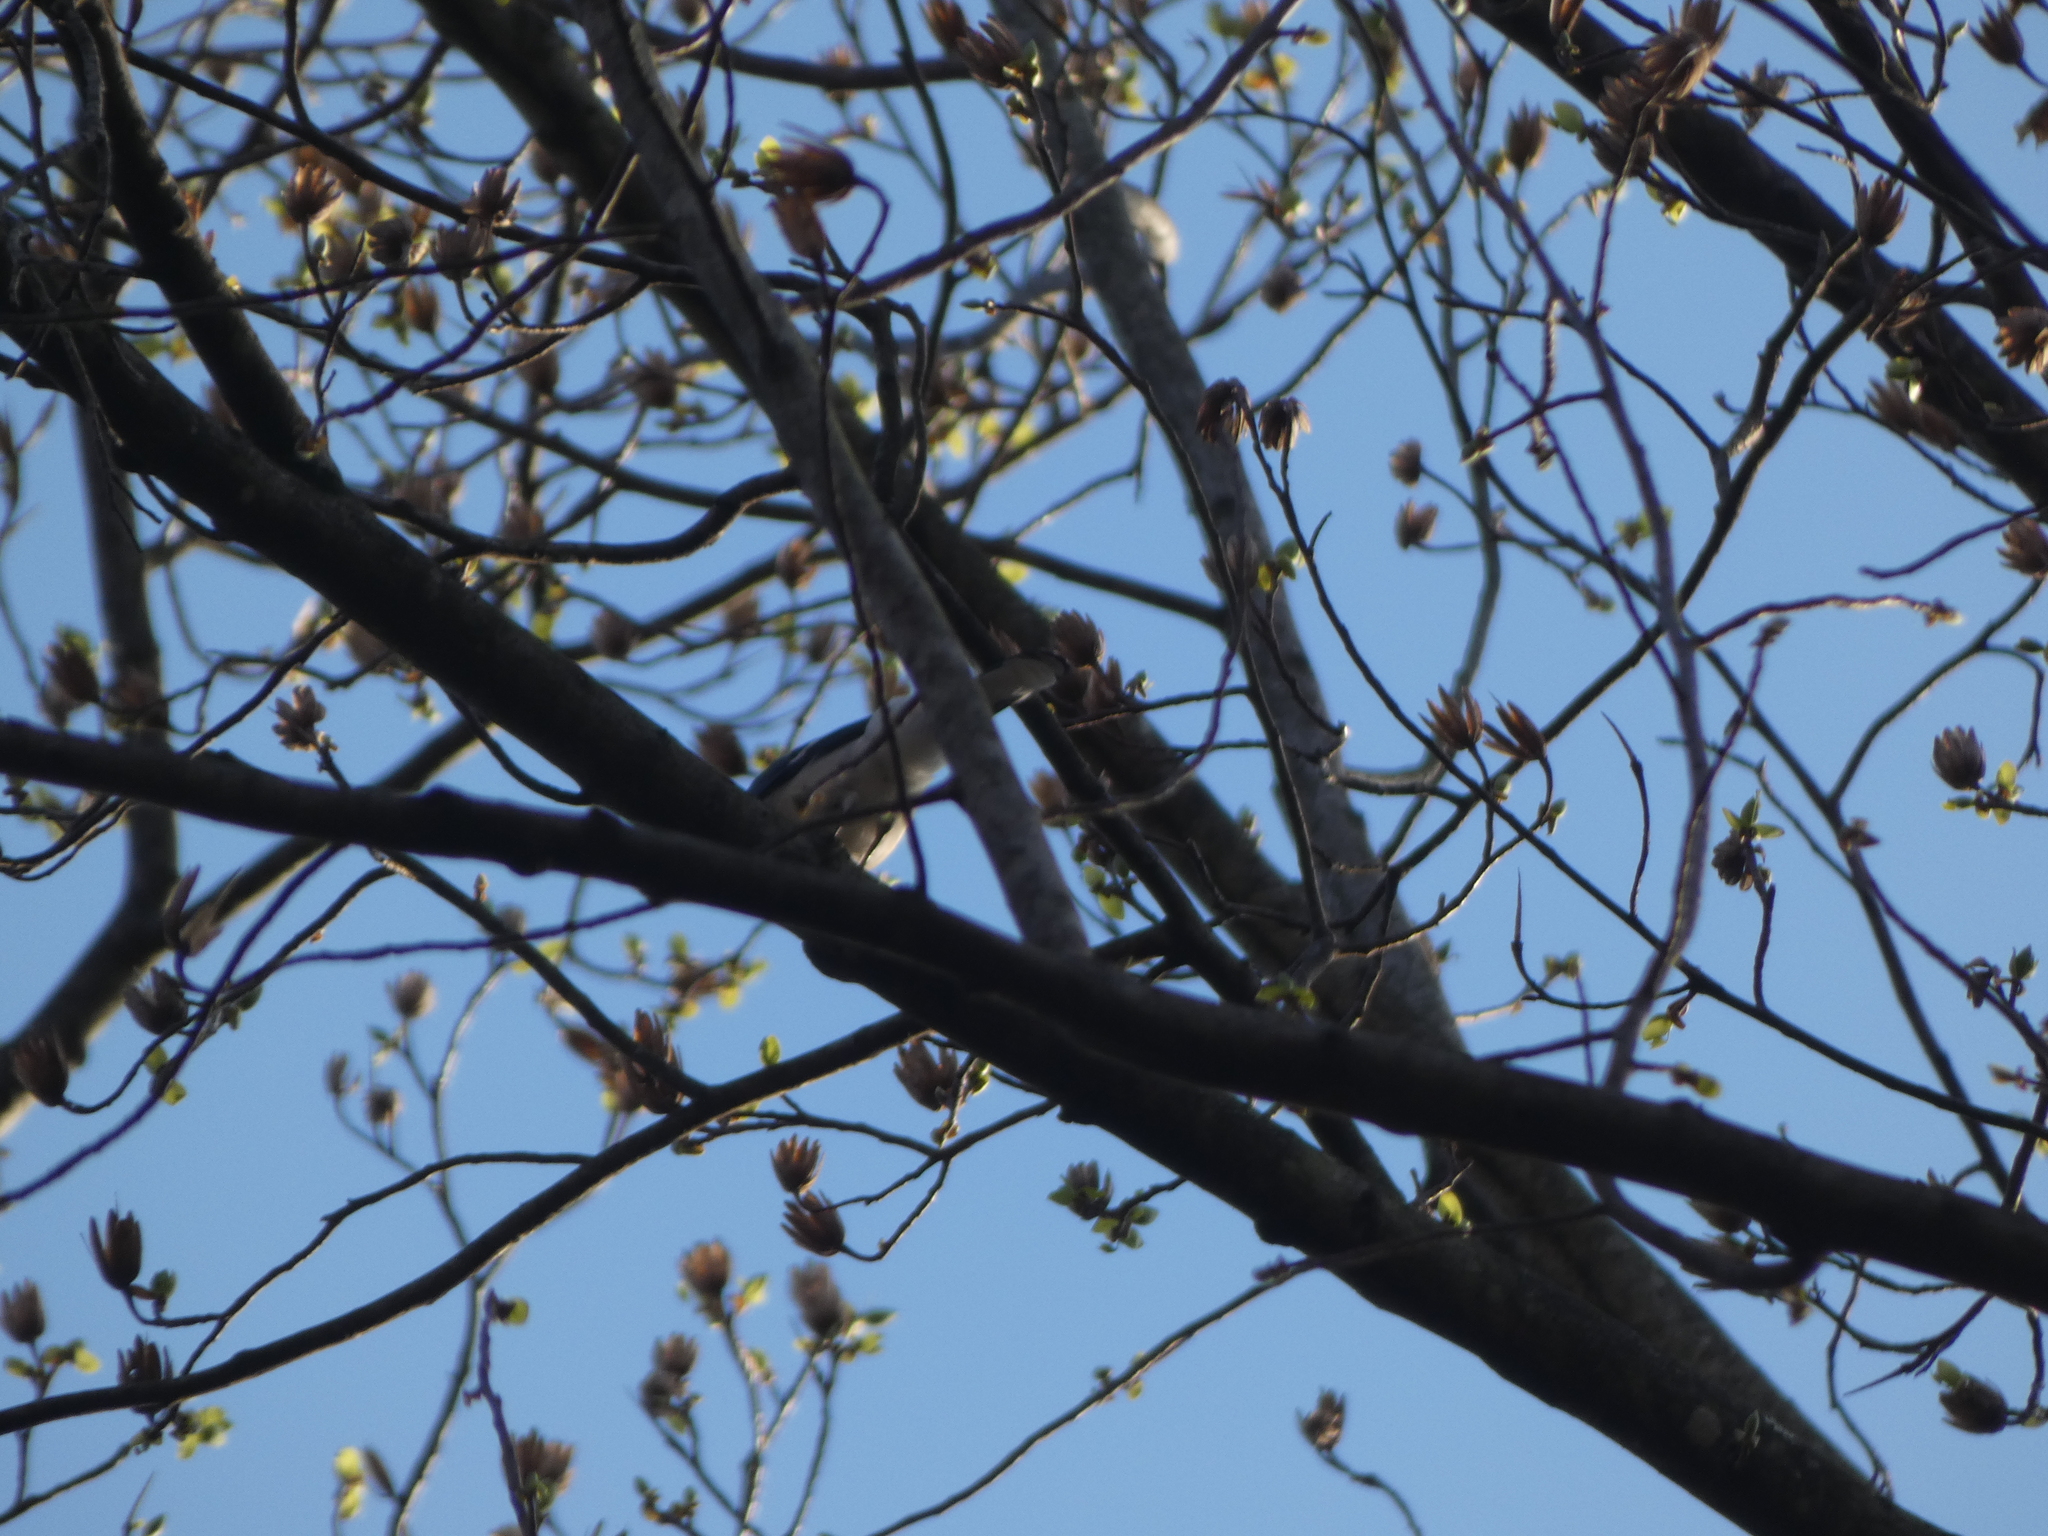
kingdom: Animalia
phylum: Chordata
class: Aves
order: Passeriformes
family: Corvidae
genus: Cyanocitta
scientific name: Cyanocitta cristata
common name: Blue jay
